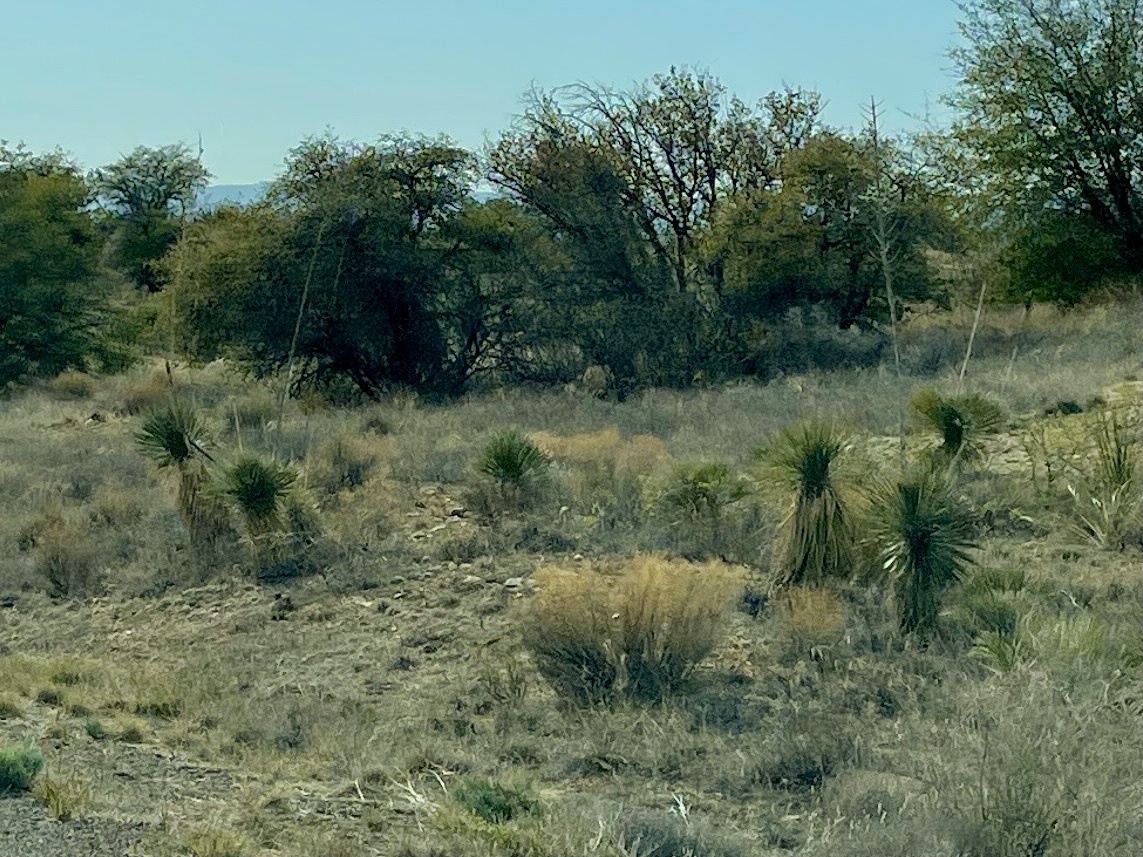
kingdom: Plantae
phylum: Tracheophyta
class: Liliopsida
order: Asparagales
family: Asparagaceae
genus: Yucca
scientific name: Yucca elata
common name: Palmella
